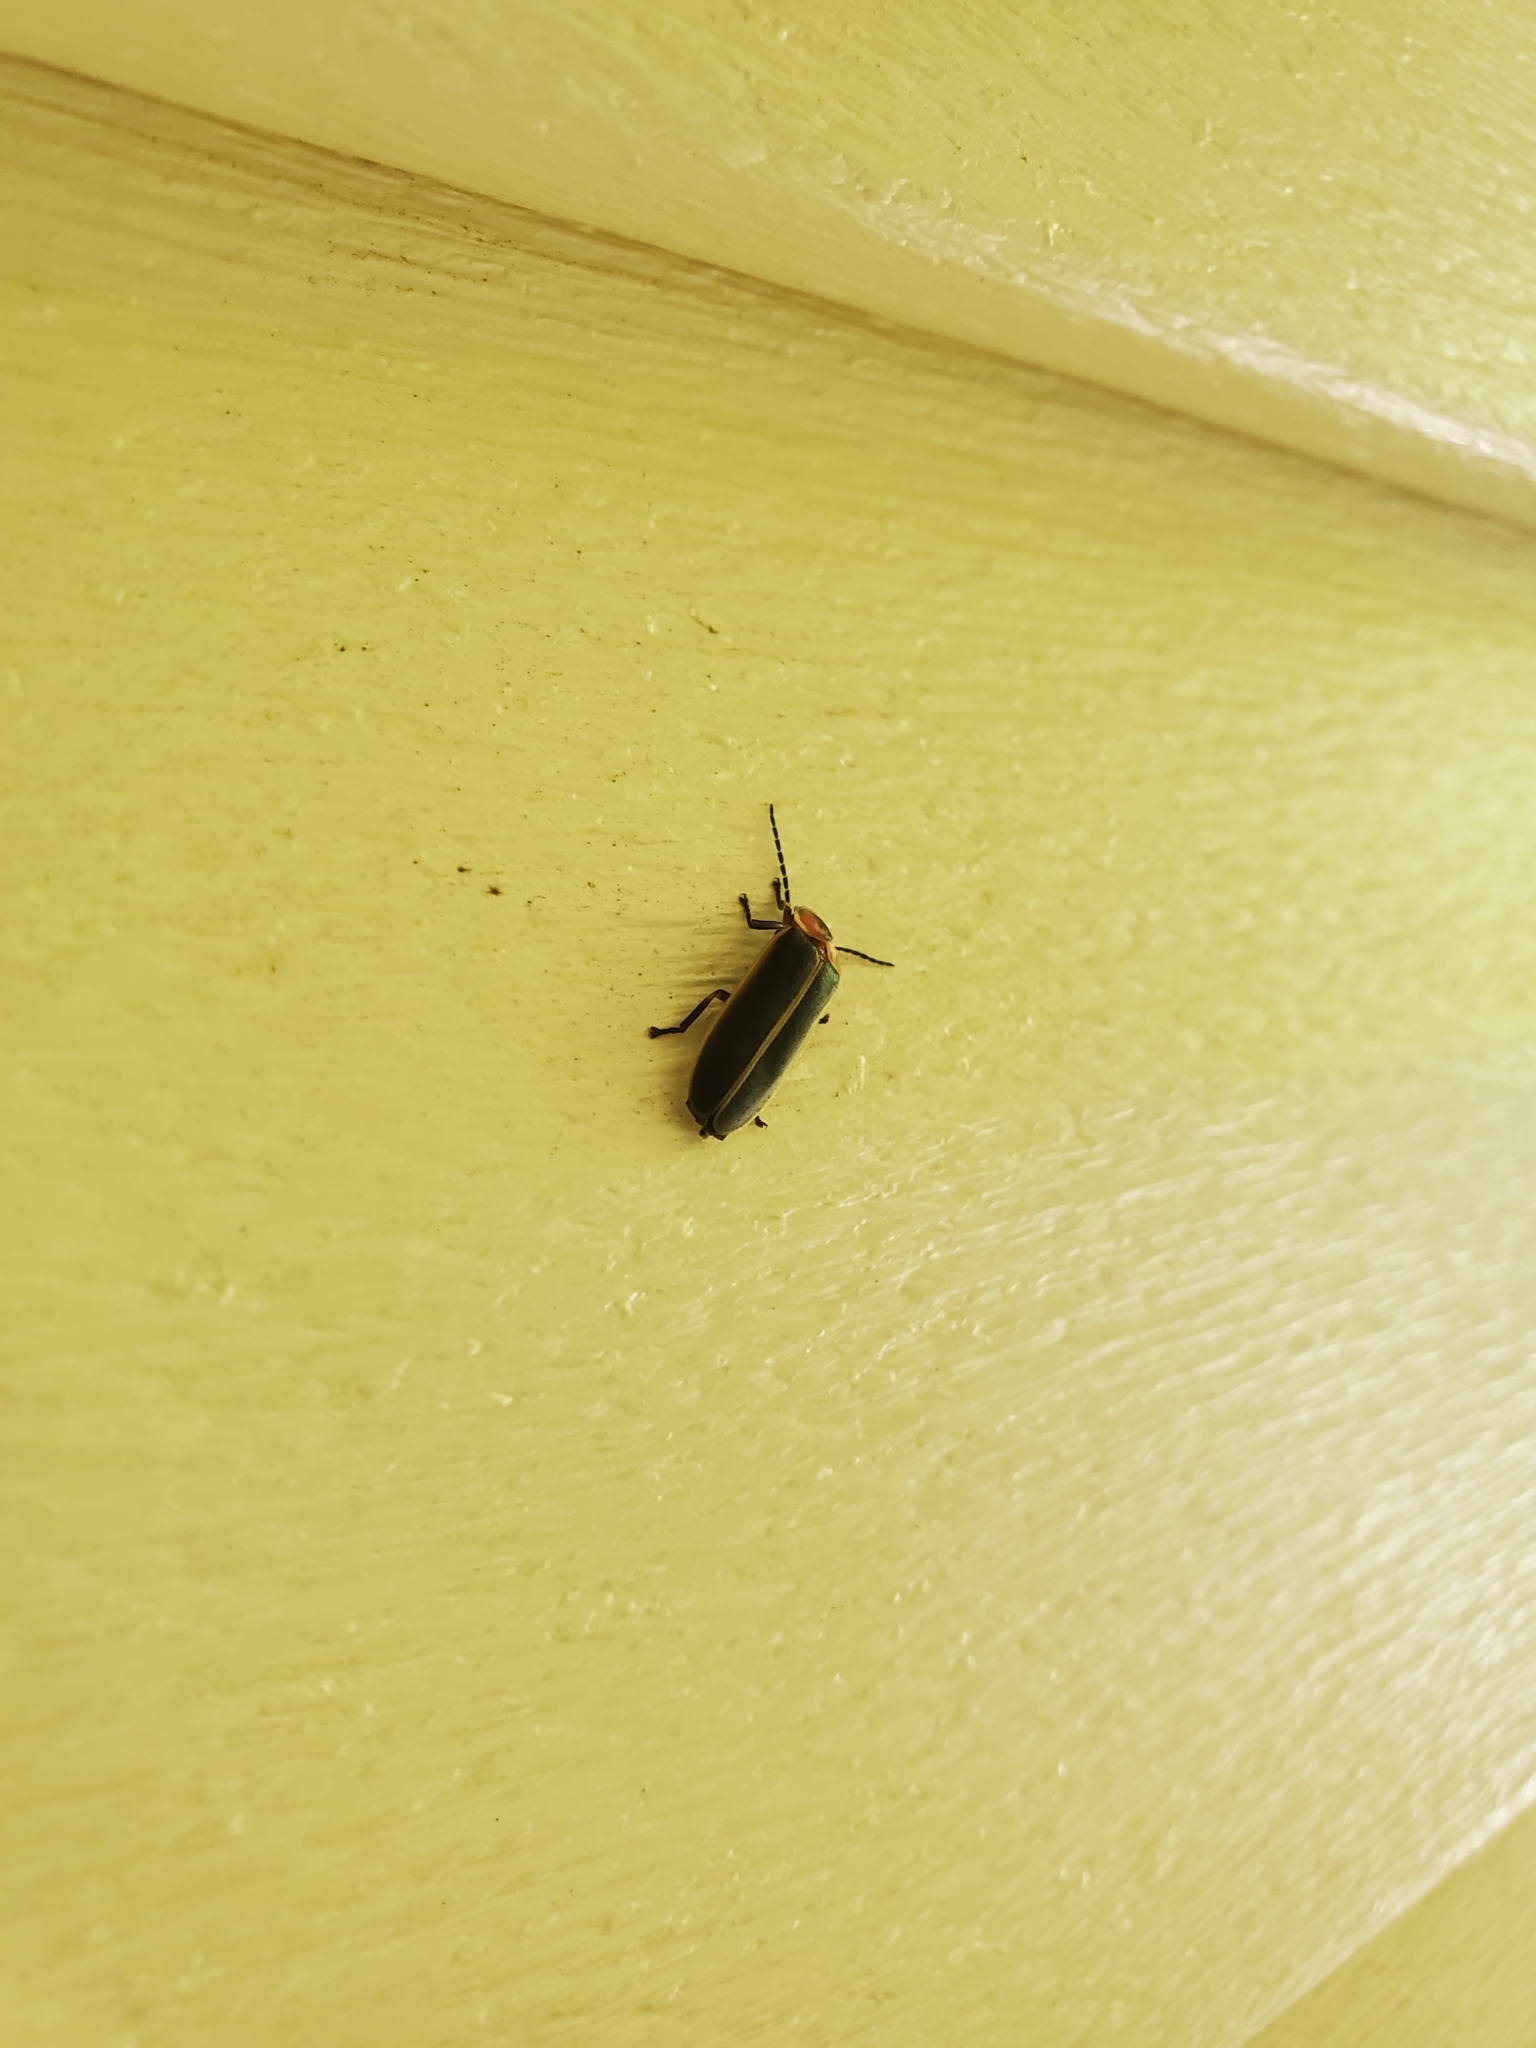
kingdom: Animalia
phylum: Arthropoda
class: Insecta
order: Coleoptera
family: Lampyridae
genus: Photinus
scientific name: Photinus pyralis
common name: Big dipper firefly
